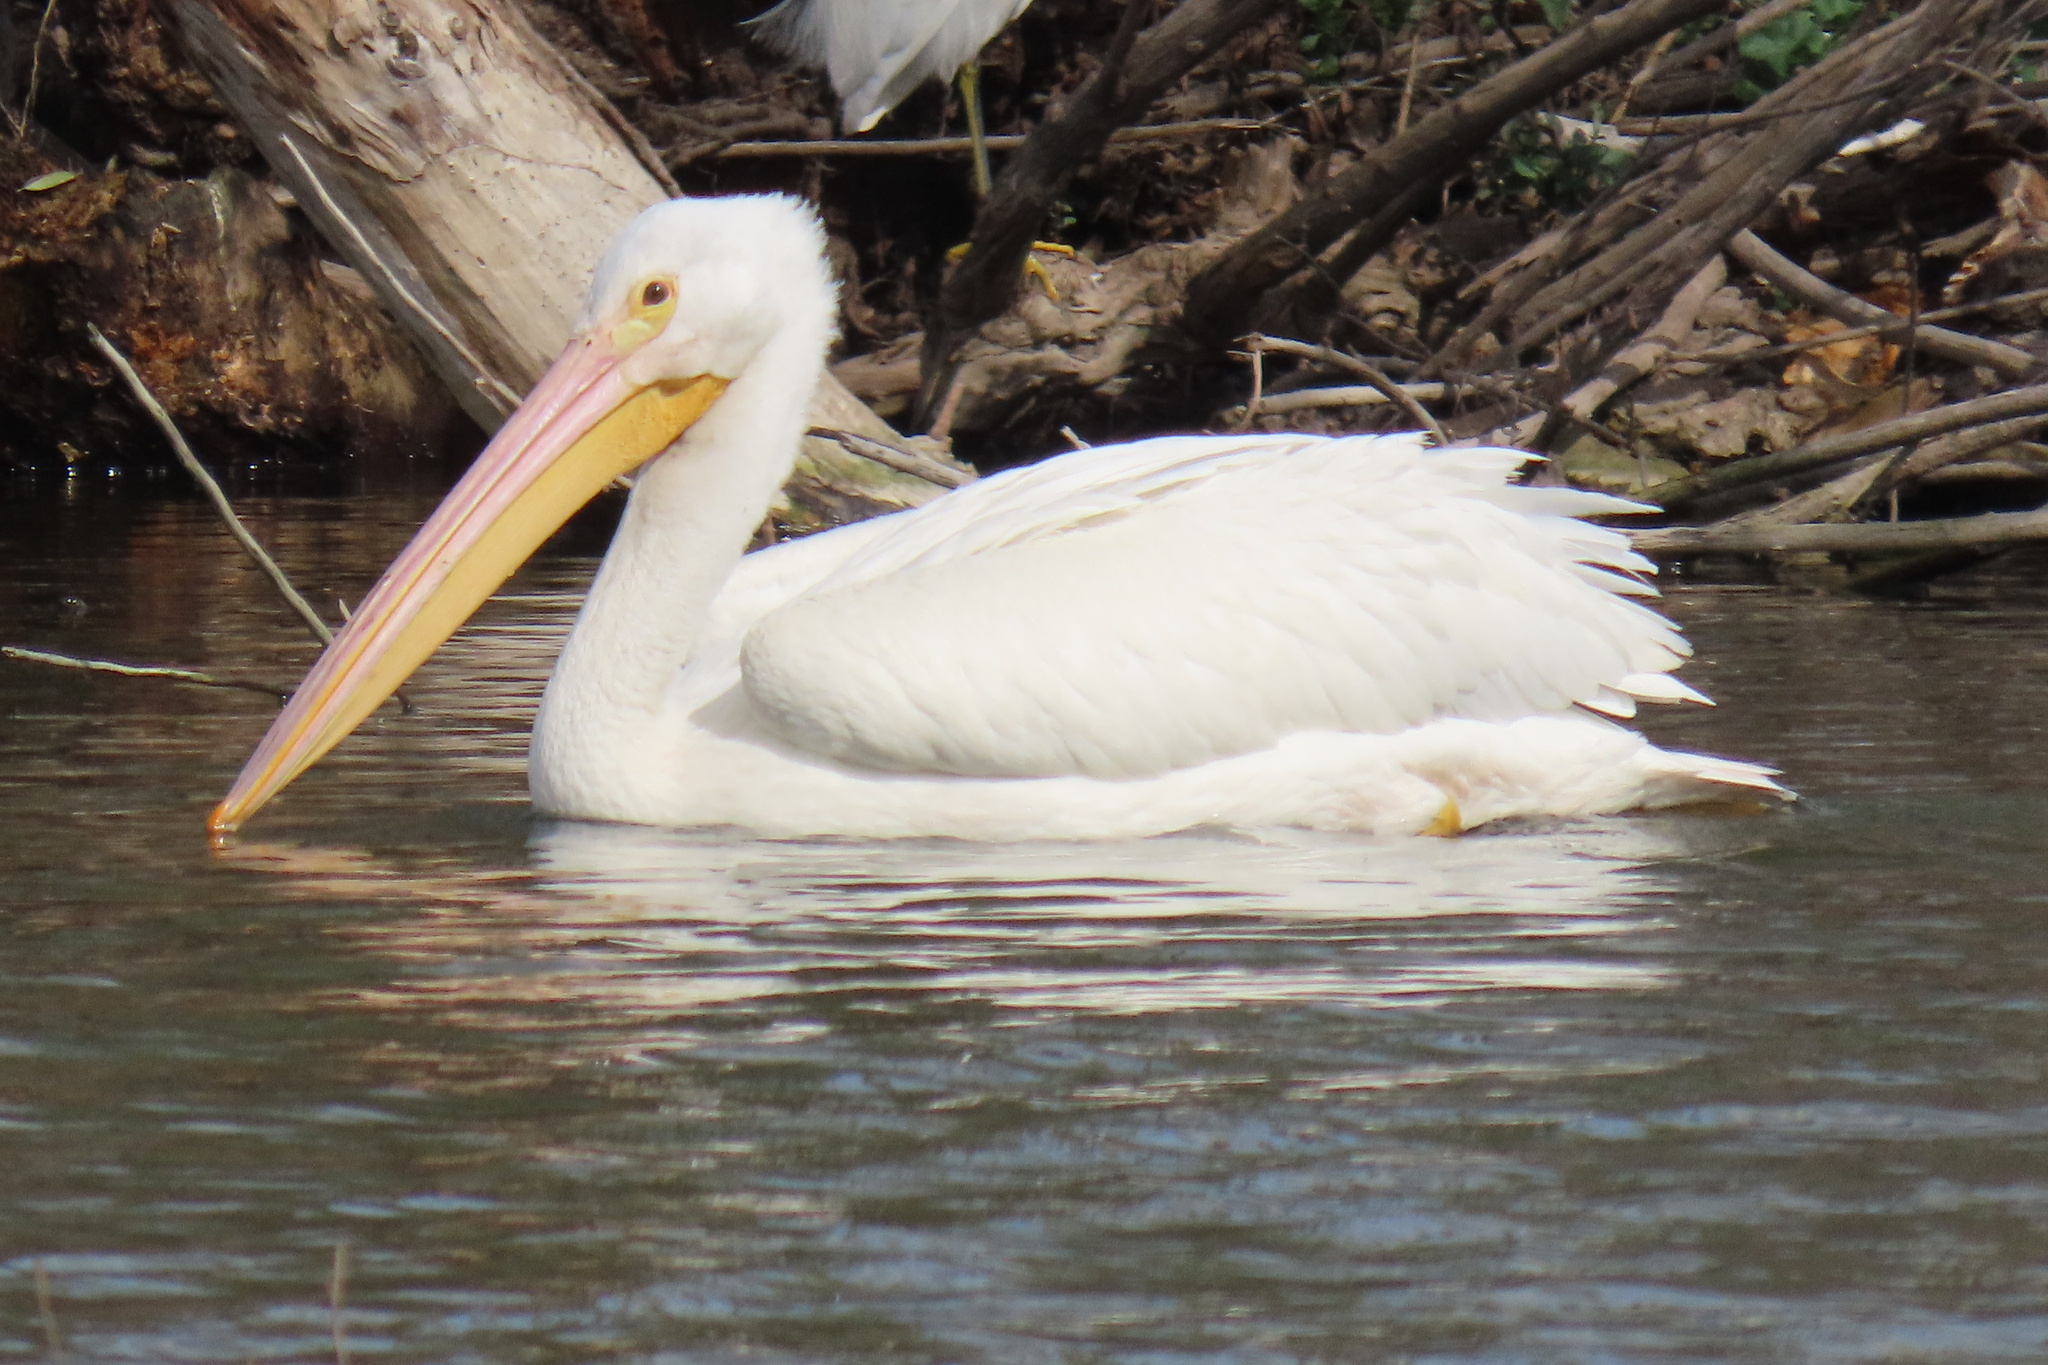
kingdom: Animalia
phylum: Chordata
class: Aves
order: Pelecaniformes
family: Pelecanidae
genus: Pelecanus
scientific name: Pelecanus erythrorhynchos
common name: American white pelican
